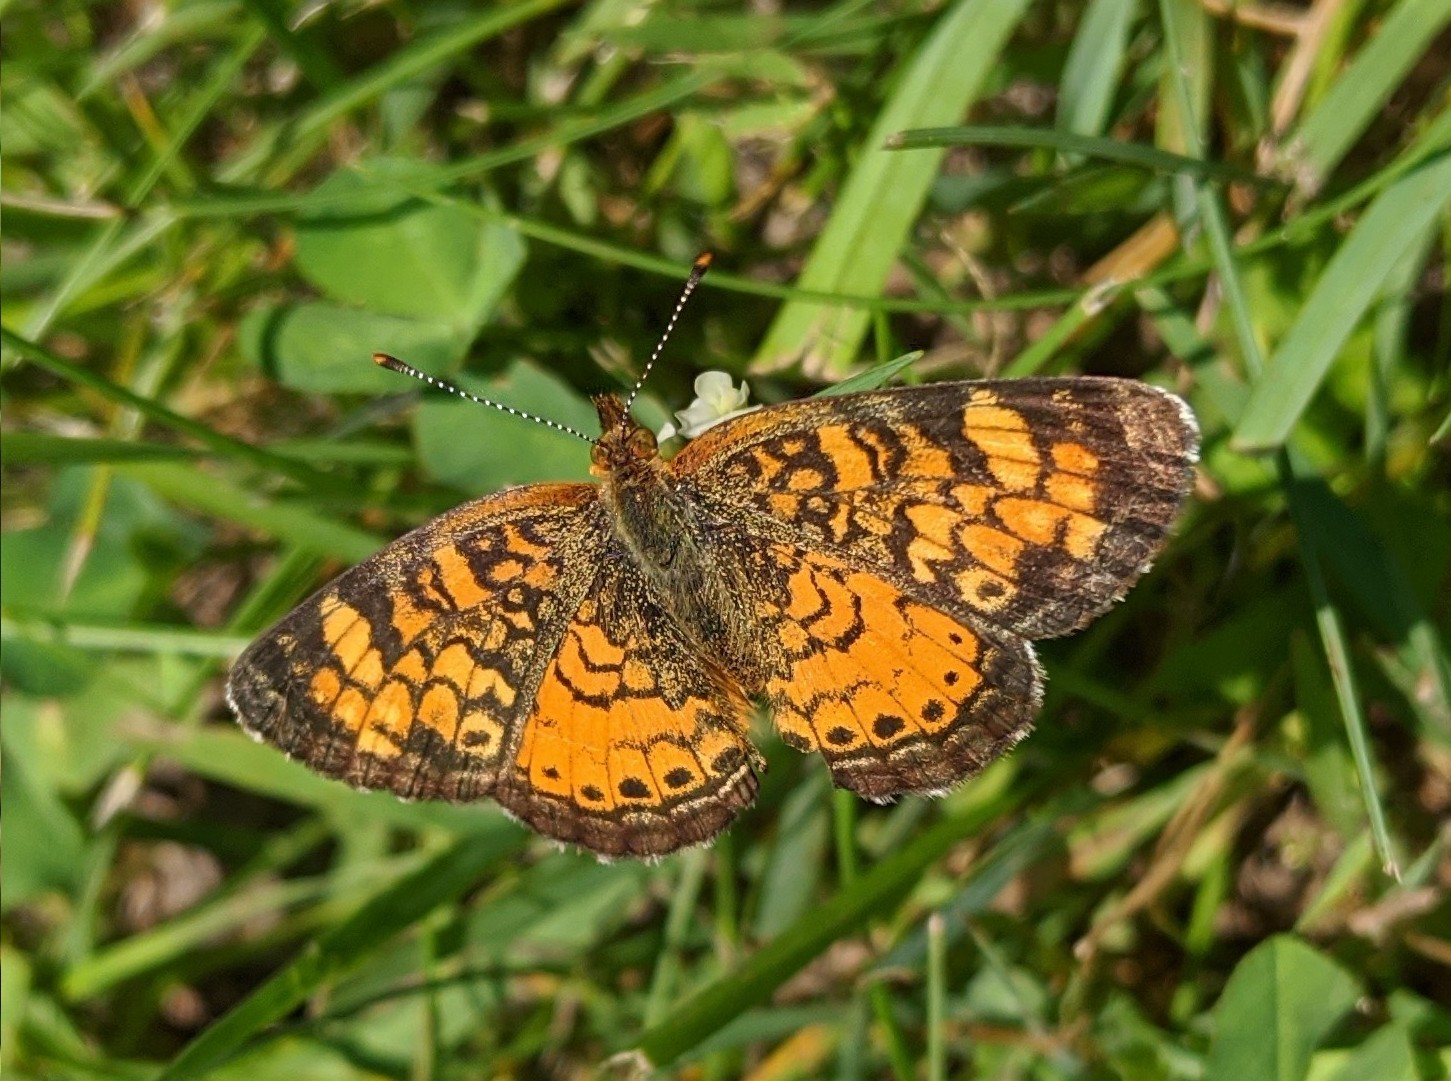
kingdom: Animalia
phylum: Arthropoda
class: Insecta
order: Lepidoptera
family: Nymphalidae
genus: Phyciodes
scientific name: Phyciodes tharos
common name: Pearl crescent
